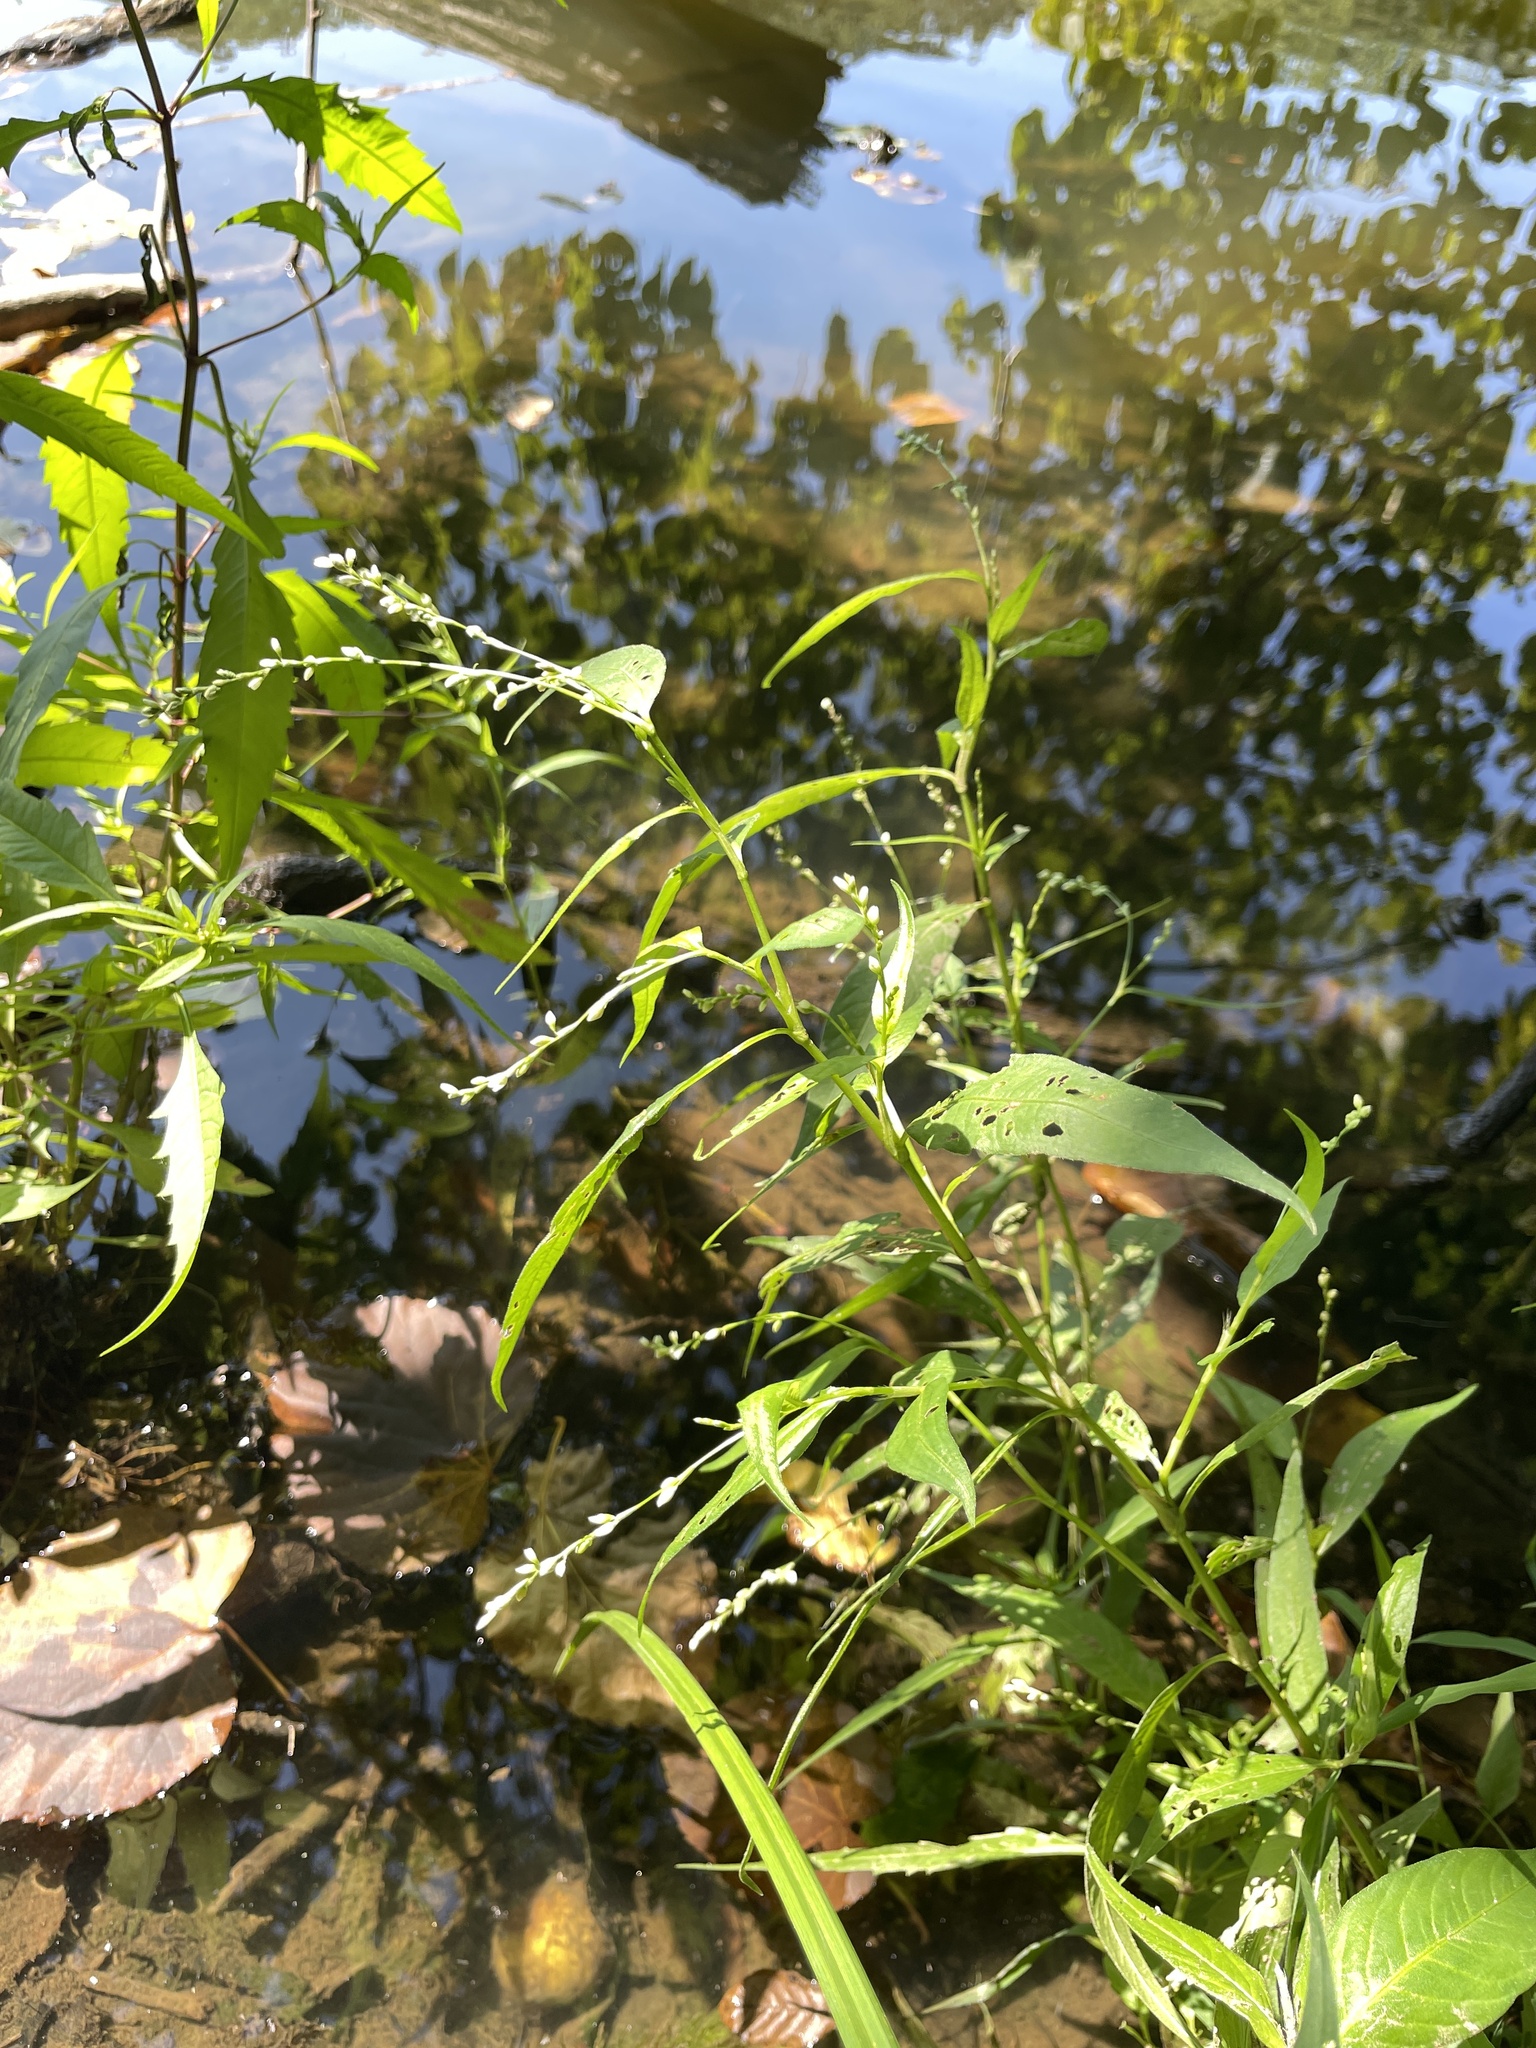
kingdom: Plantae
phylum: Tracheophyta
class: Magnoliopsida
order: Caryophyllales
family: Polygonaceae
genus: Persicaria
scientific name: Persicaria punctata
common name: Dotted smartweed
